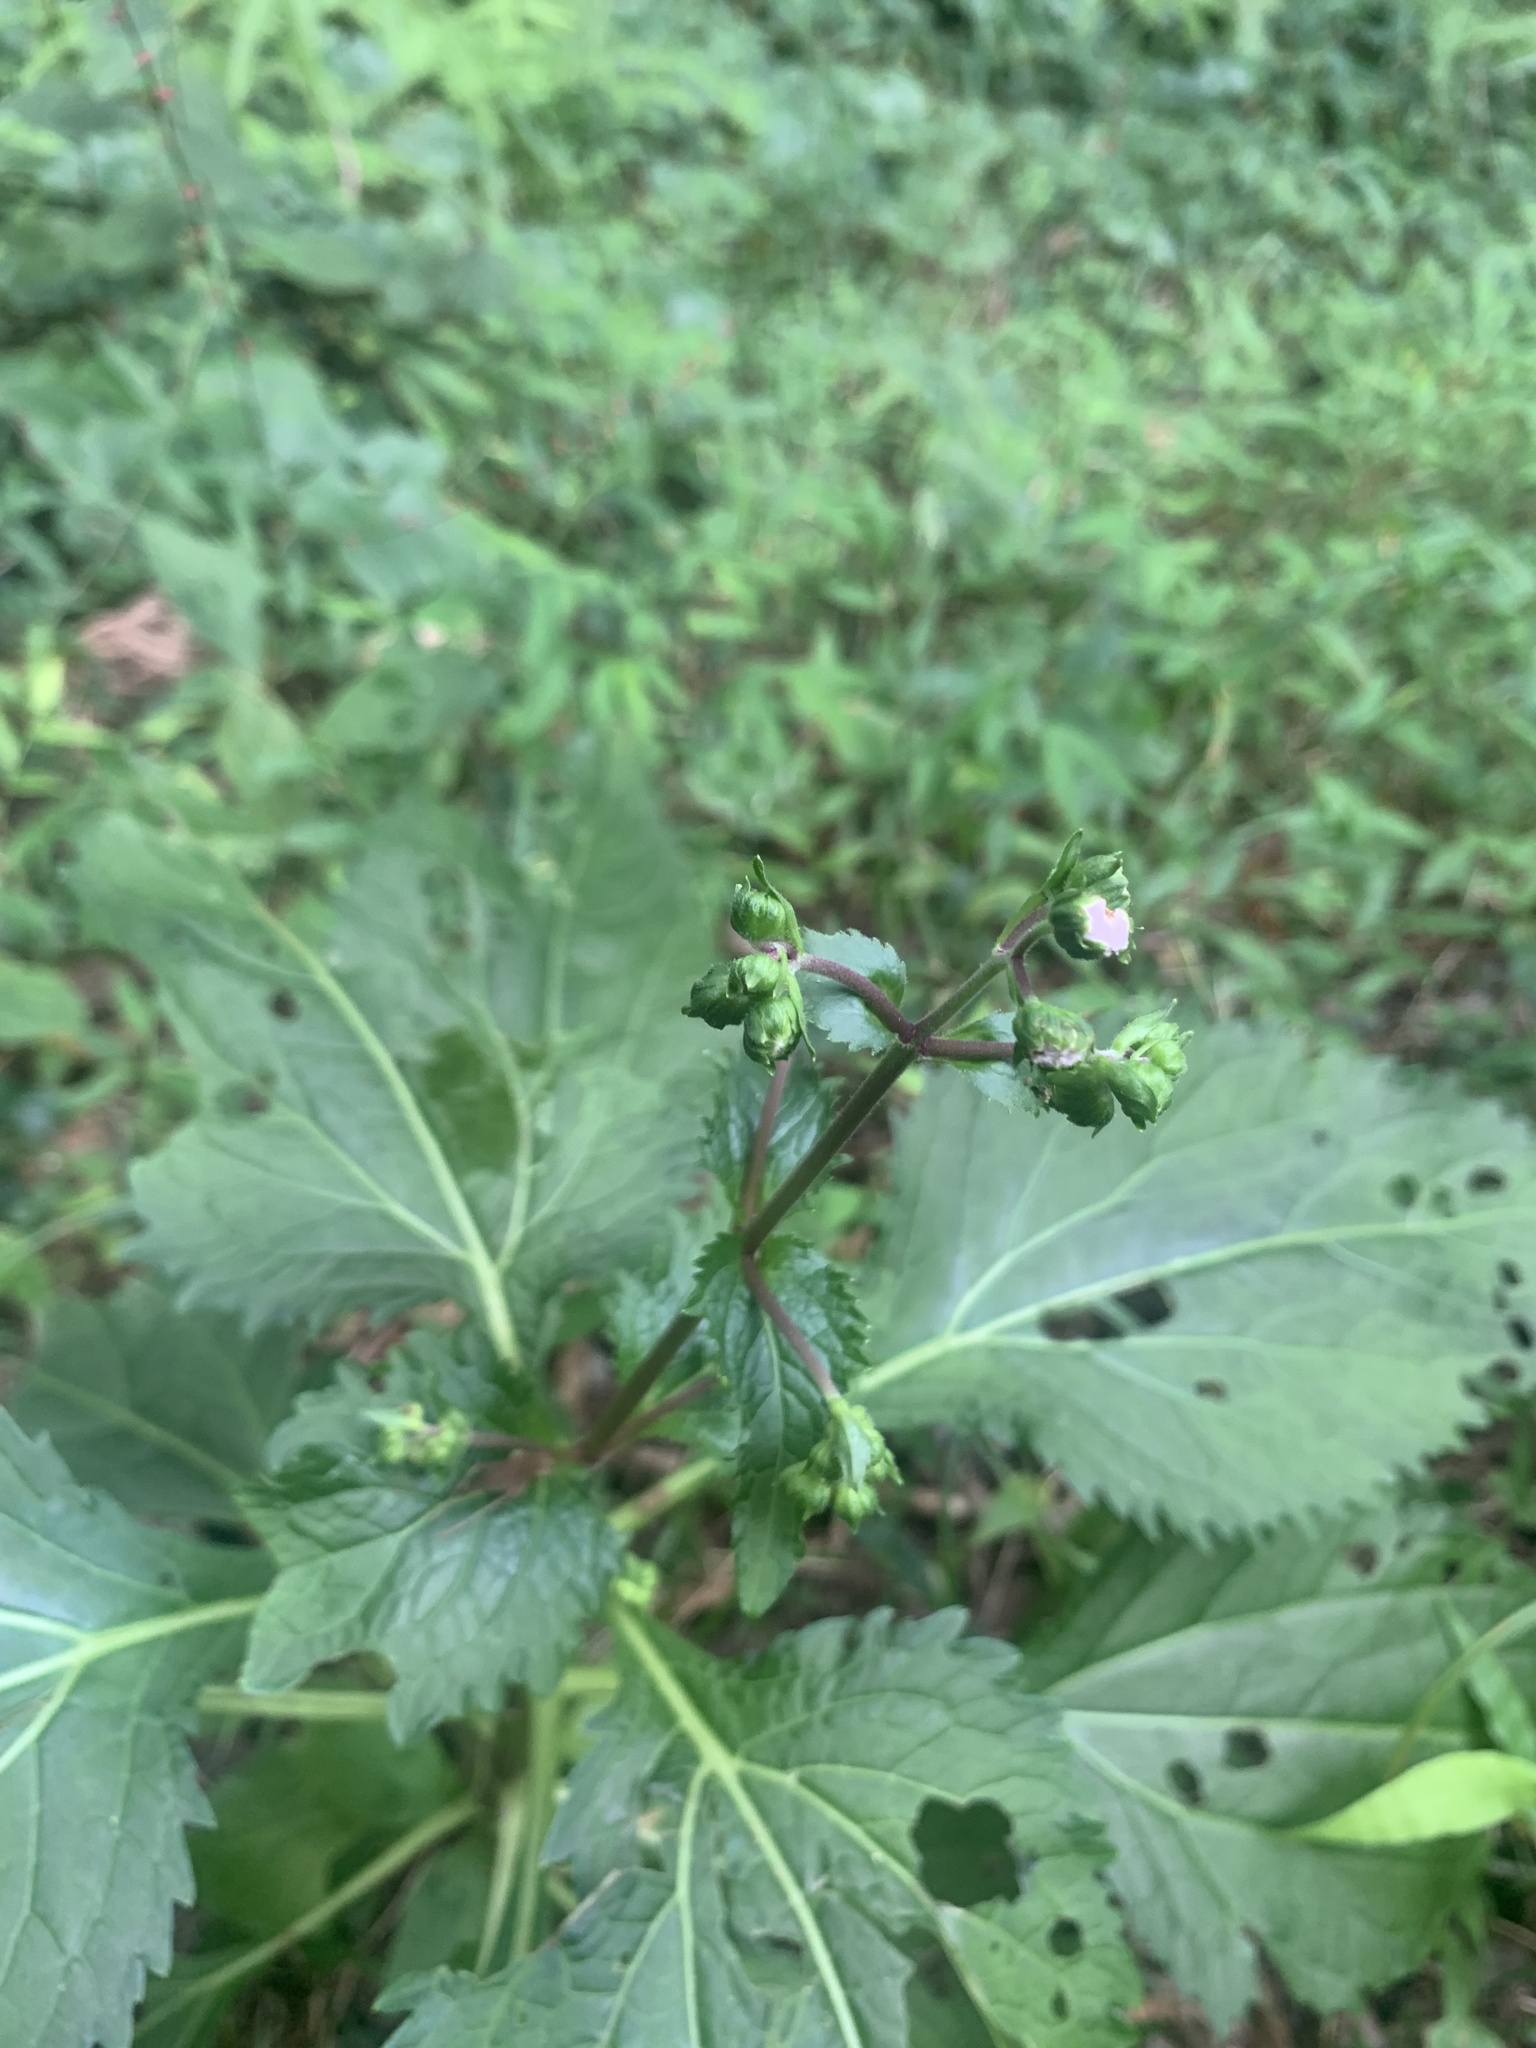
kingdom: Plantae
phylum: Tracheophyta
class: Magnoliopsida
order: Asterales
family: Asteraceae
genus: Adenostemma
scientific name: Adenostemma lavenia
